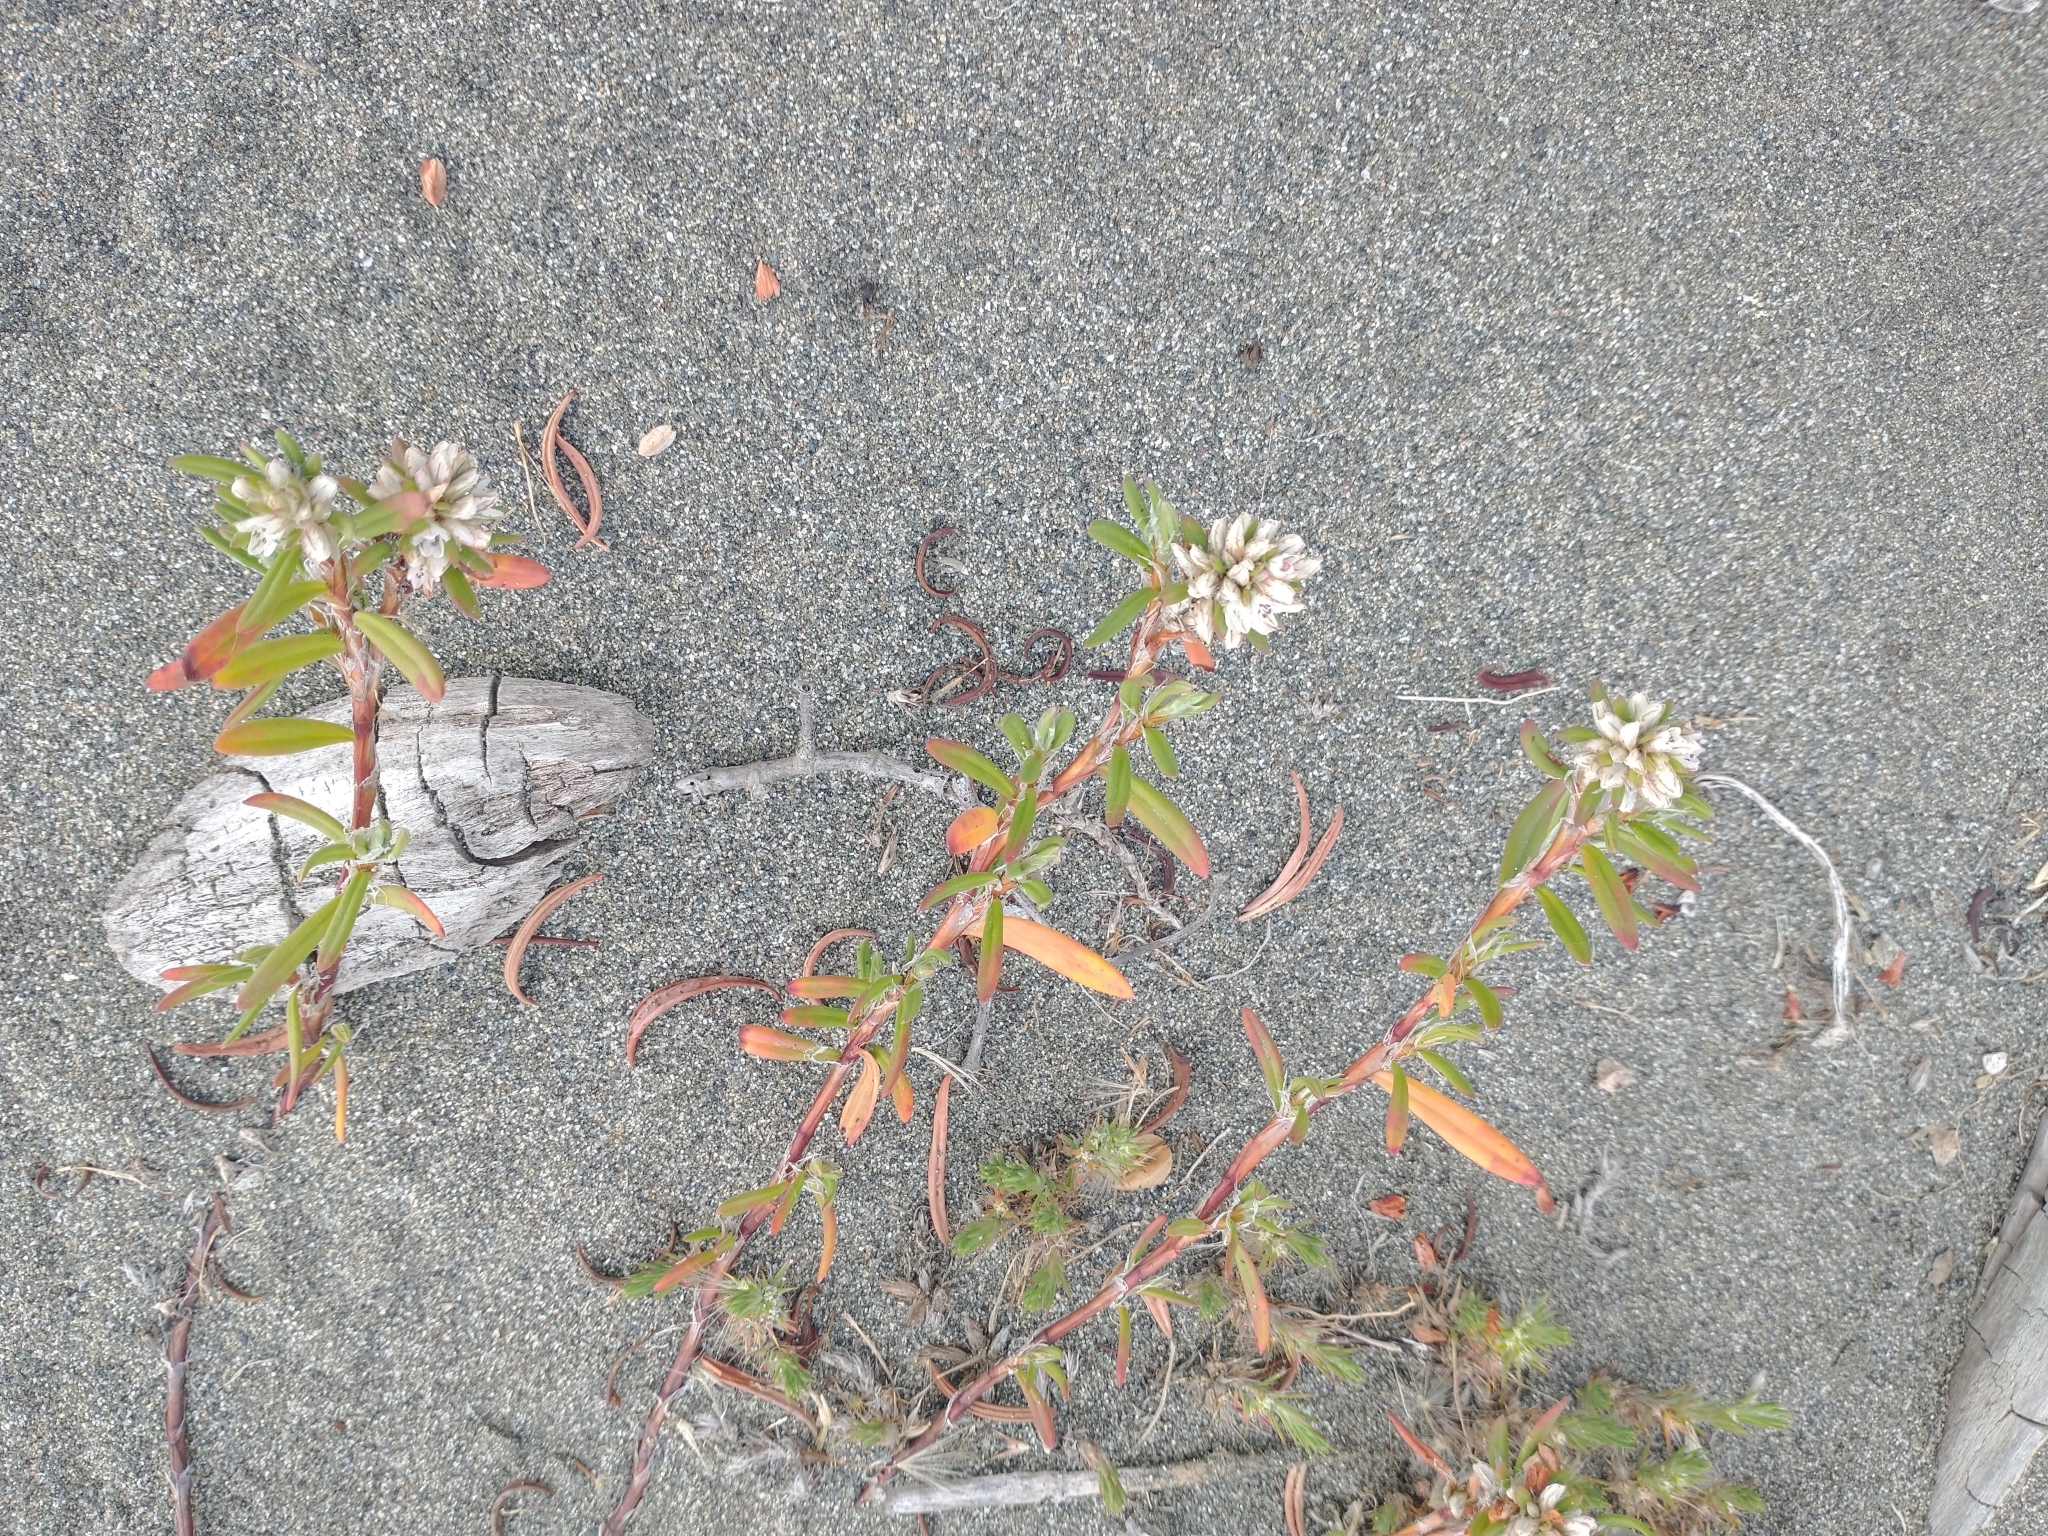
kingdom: Plantae
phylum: Tracheophyta
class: Magnoliopsida
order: Caryophyllales
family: Polygonaceae
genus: Polygonum
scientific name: Polygonum paronychia
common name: Dune knotweed
